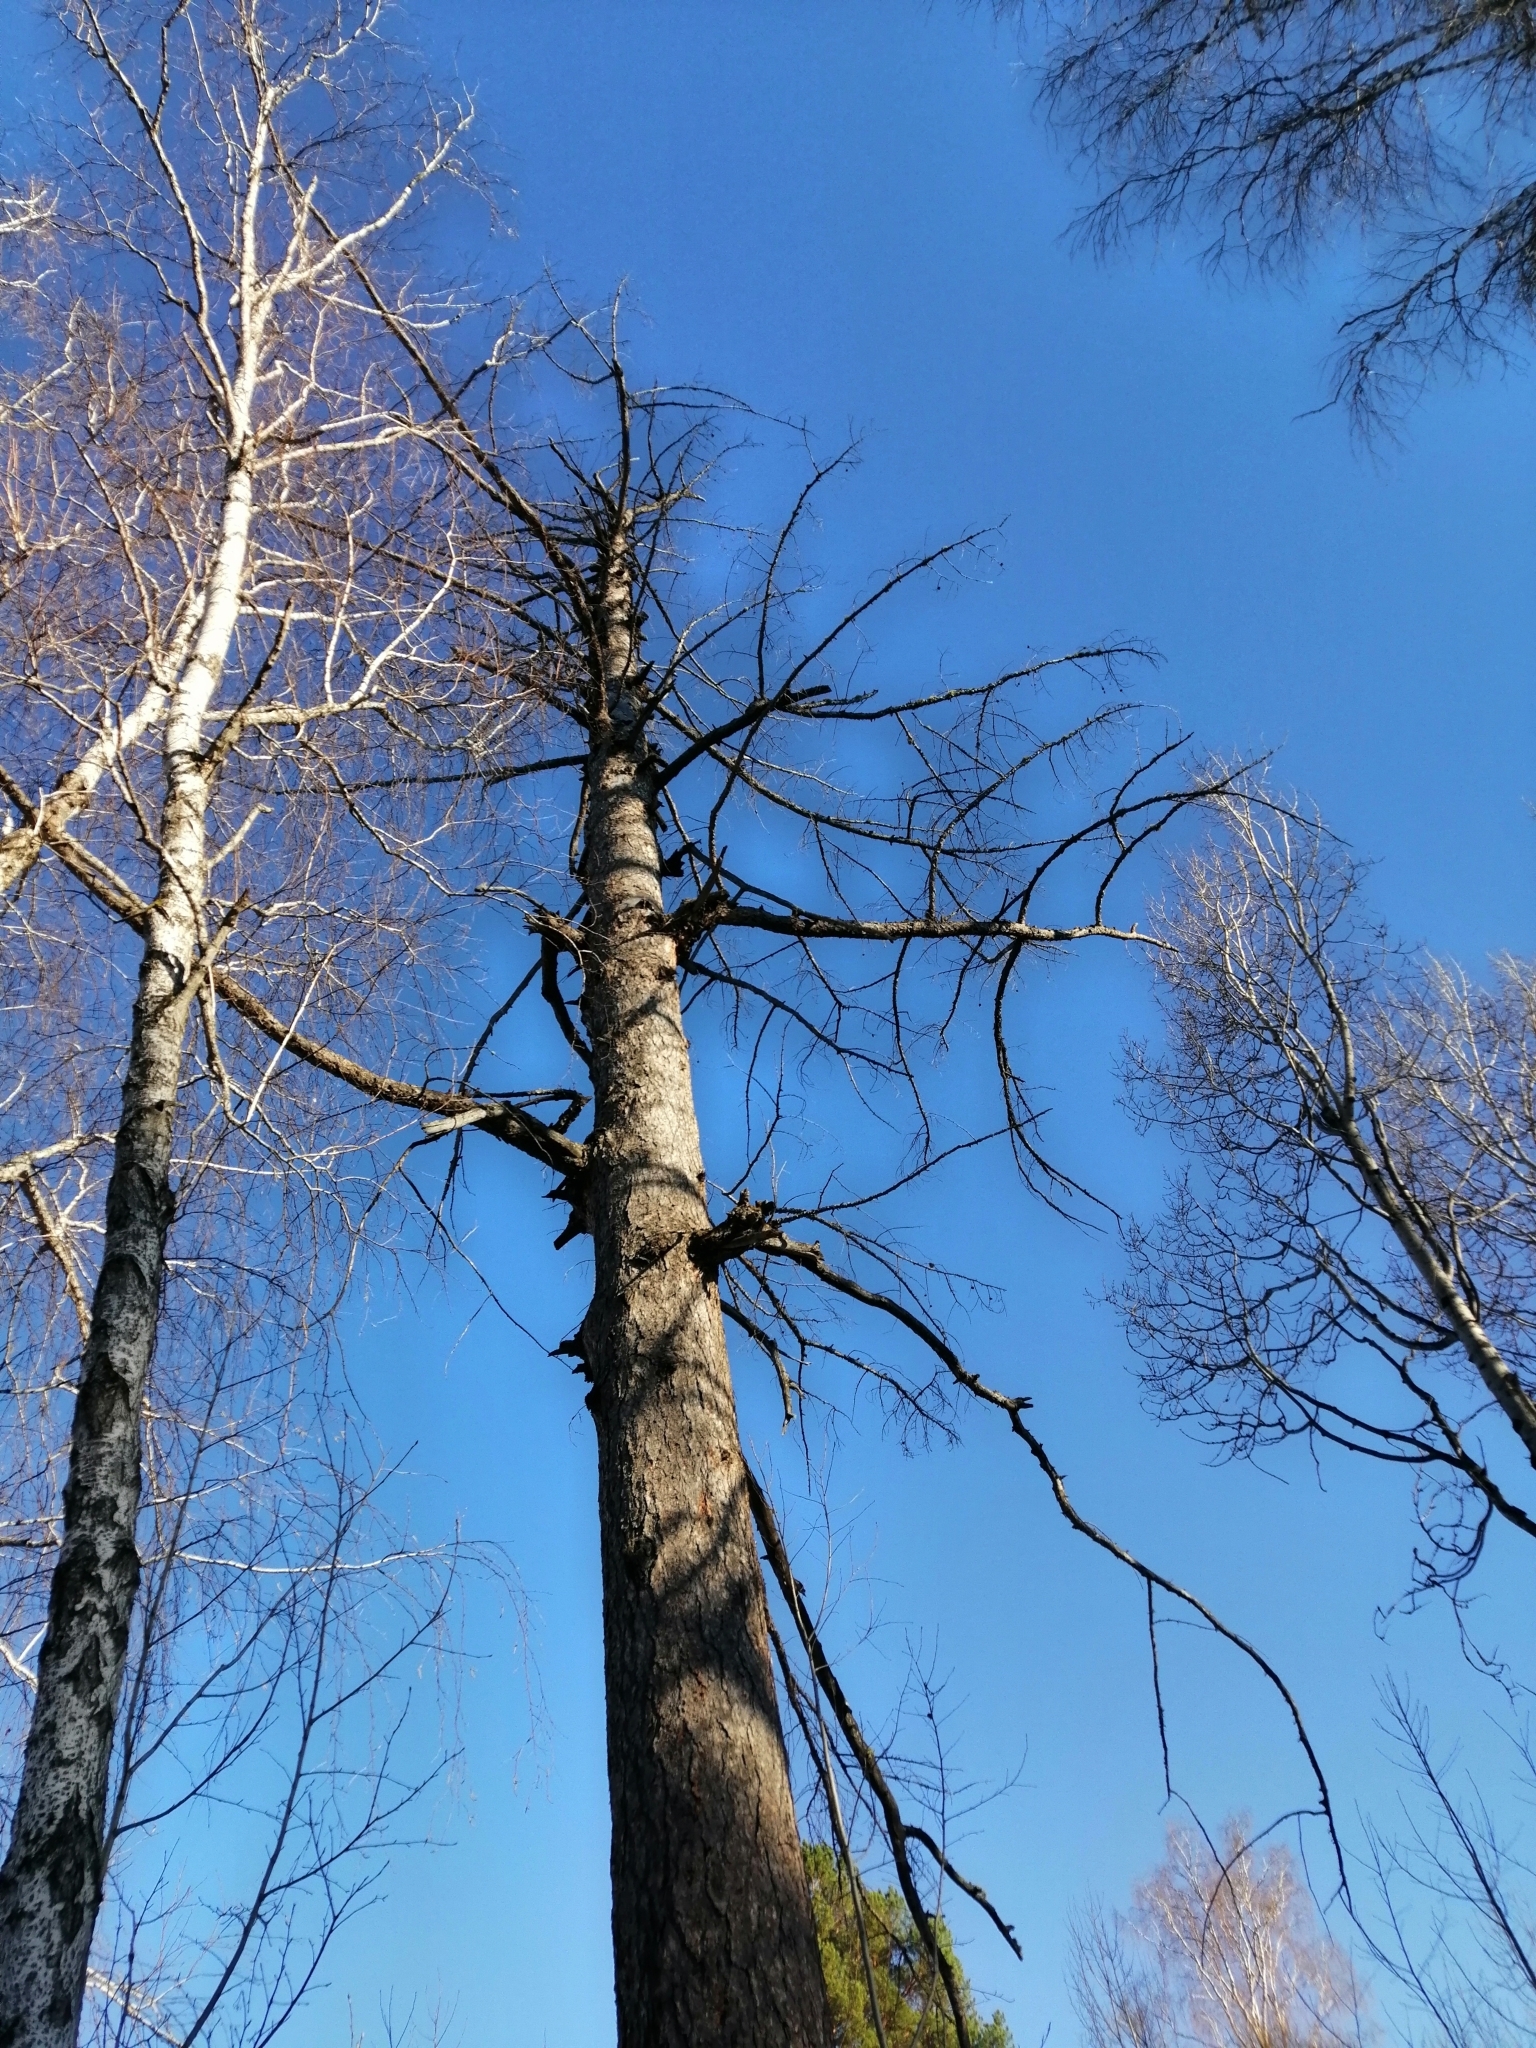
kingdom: Plantae
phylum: Tracheophyta
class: Pinopsida
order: Pinales
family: Pinaceae
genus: Larix
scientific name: Larix sibirica
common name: Siberian larch
